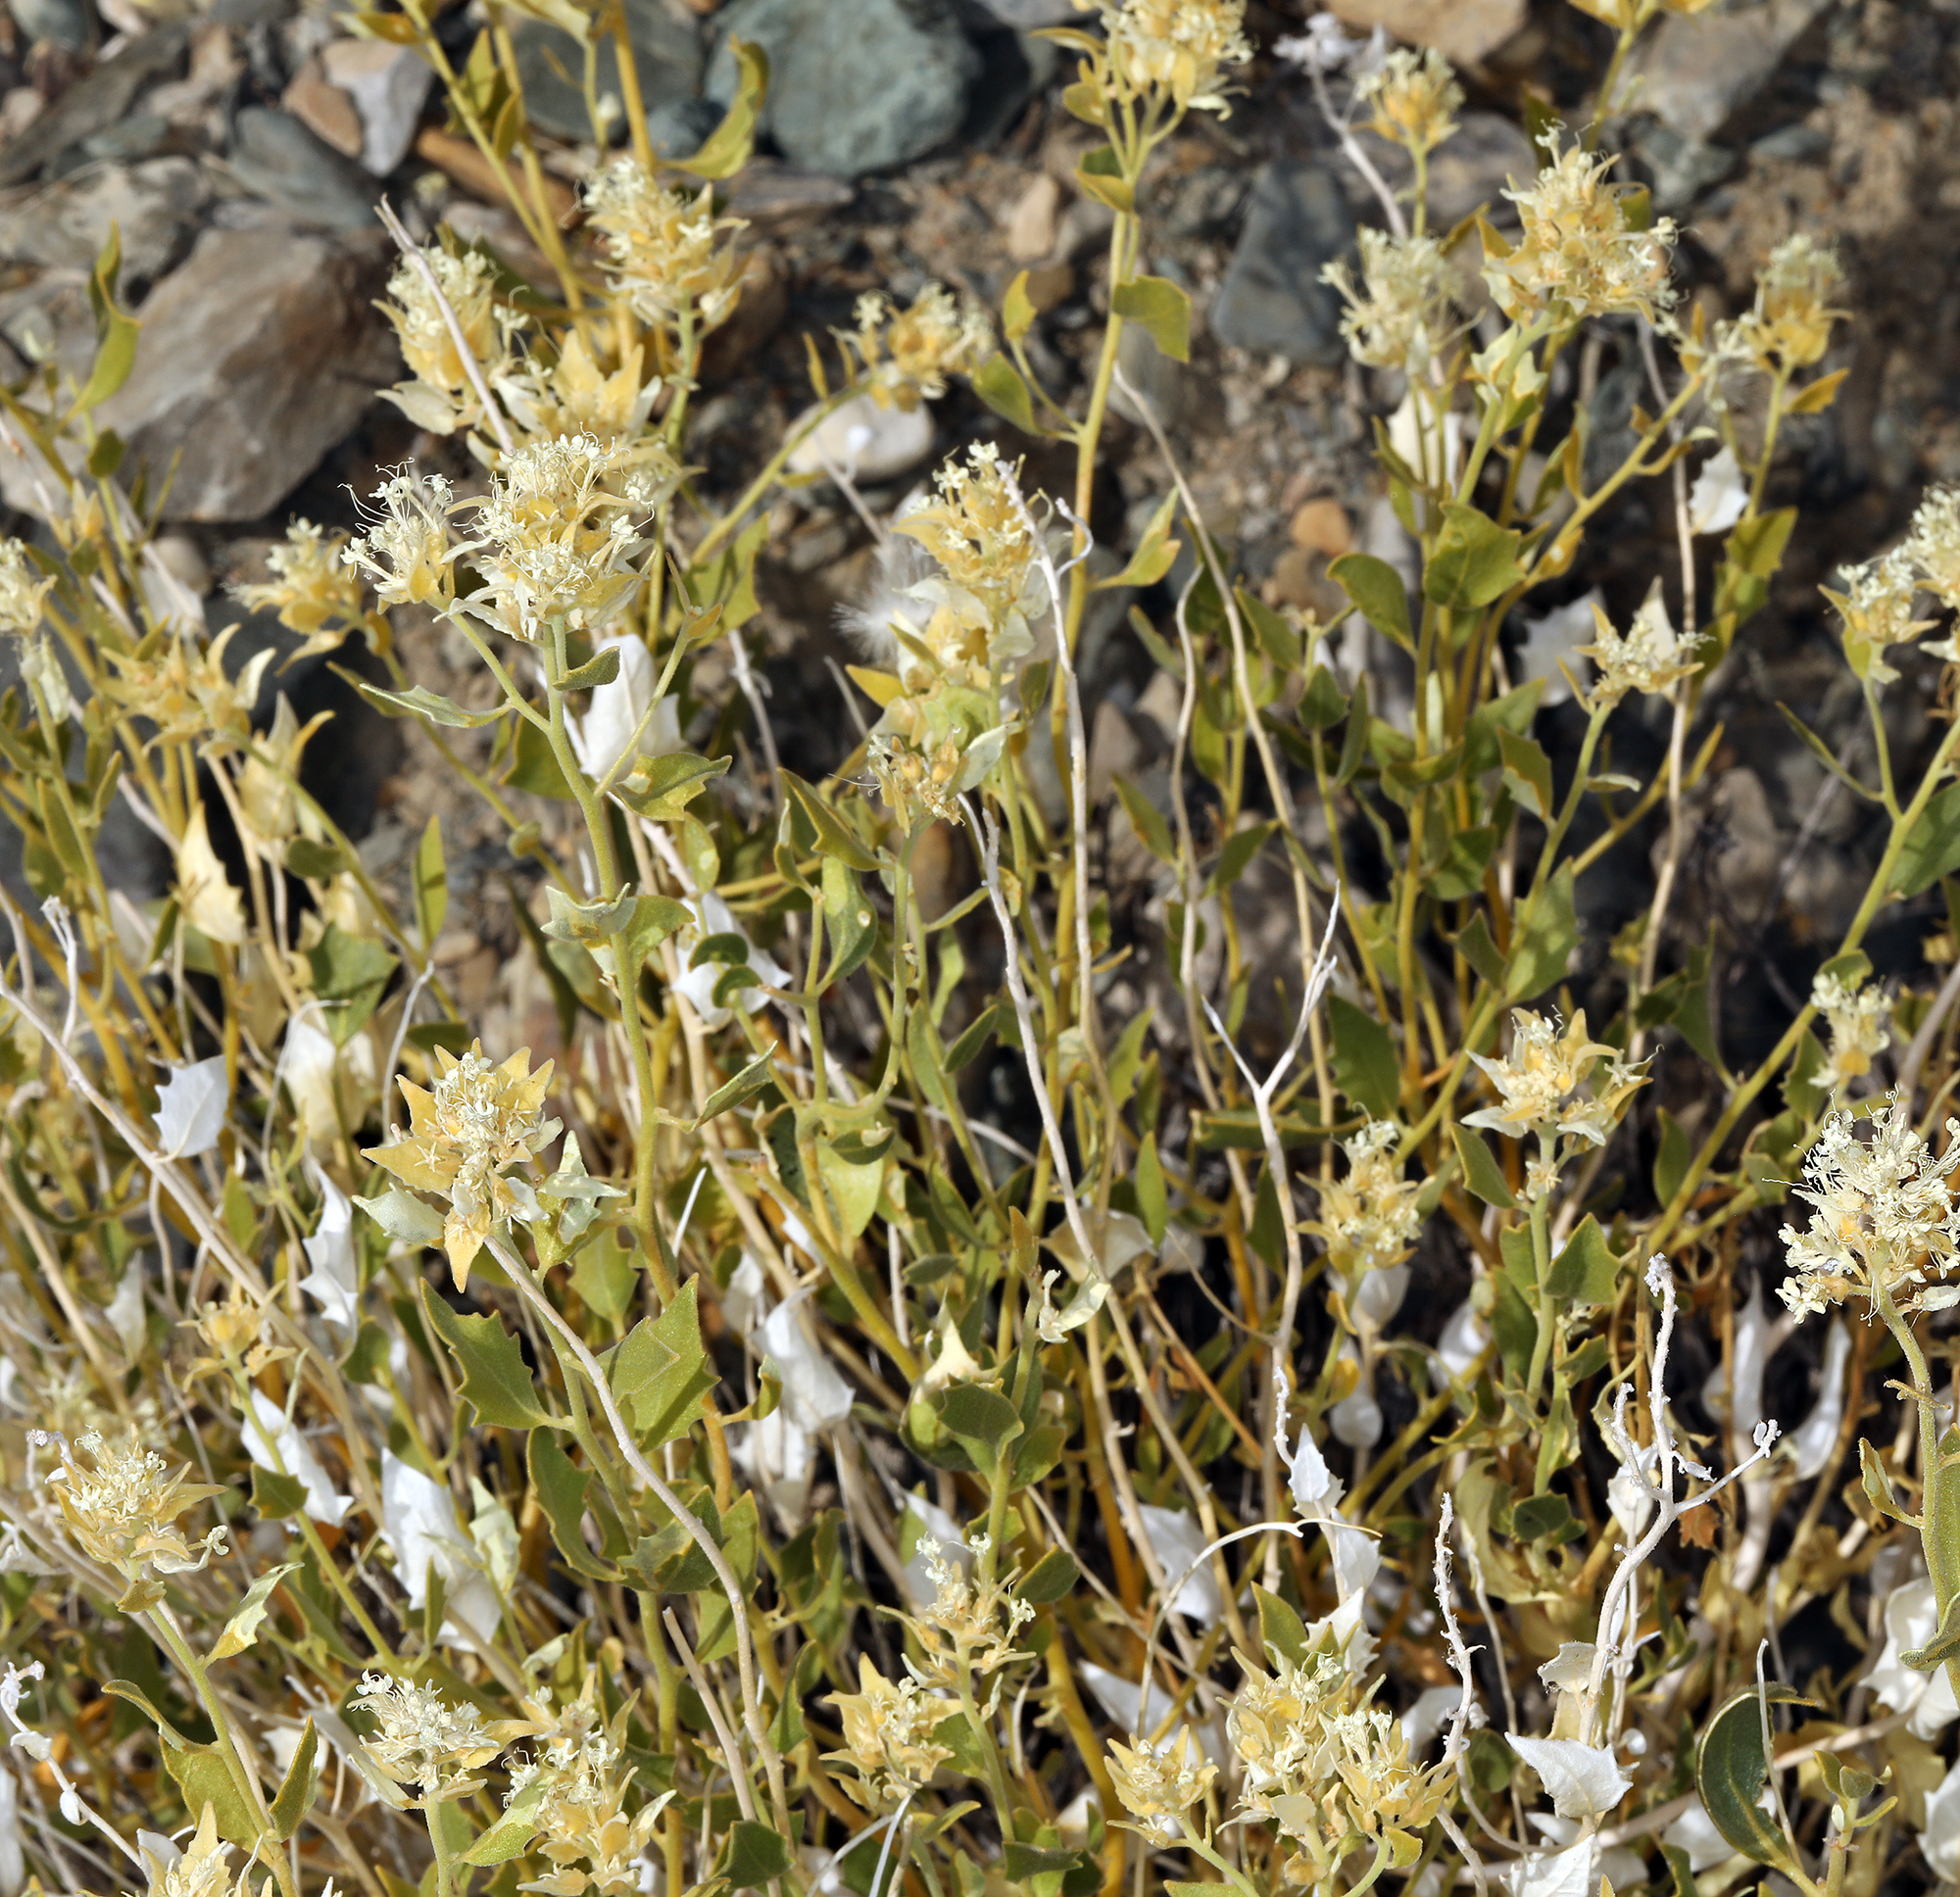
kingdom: Plantae
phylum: Tracheophyta
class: Magnoliopsida
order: Cornales
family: Loasaceae
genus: Petalonyx
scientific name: Petalonyx nitidus
